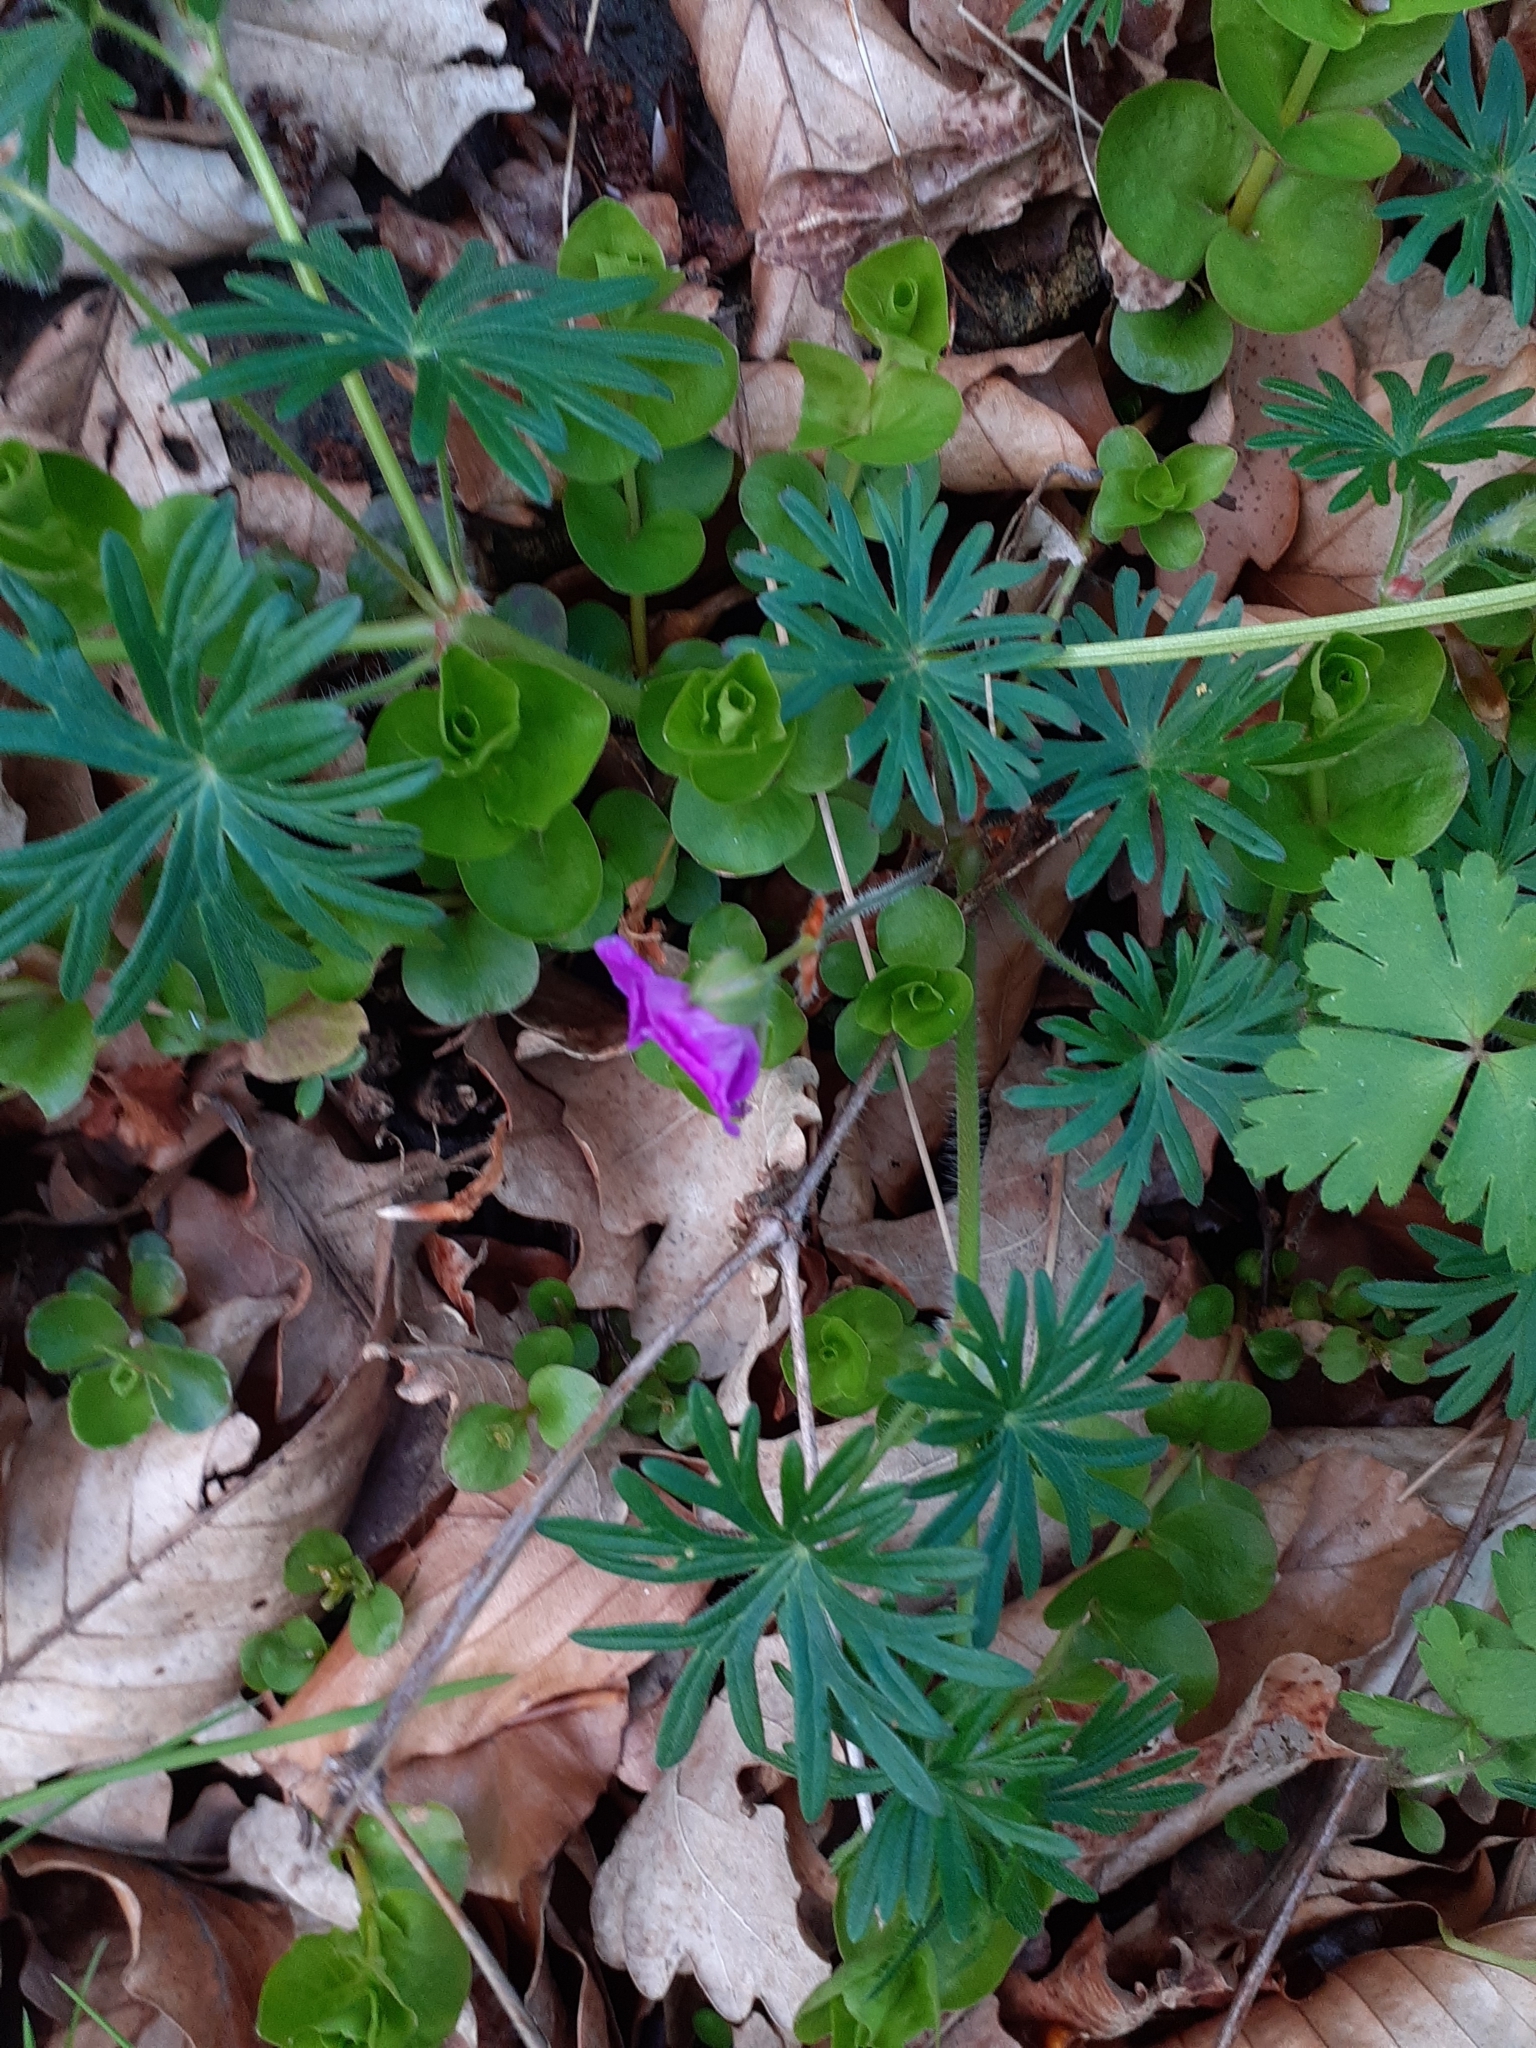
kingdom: Plantae
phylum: Tracheophyta
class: Magnoliopsida
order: Geraniales
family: Geraniaceae
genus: Geranium
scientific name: Geranium sanguineum
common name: Bloody crane's-bill
